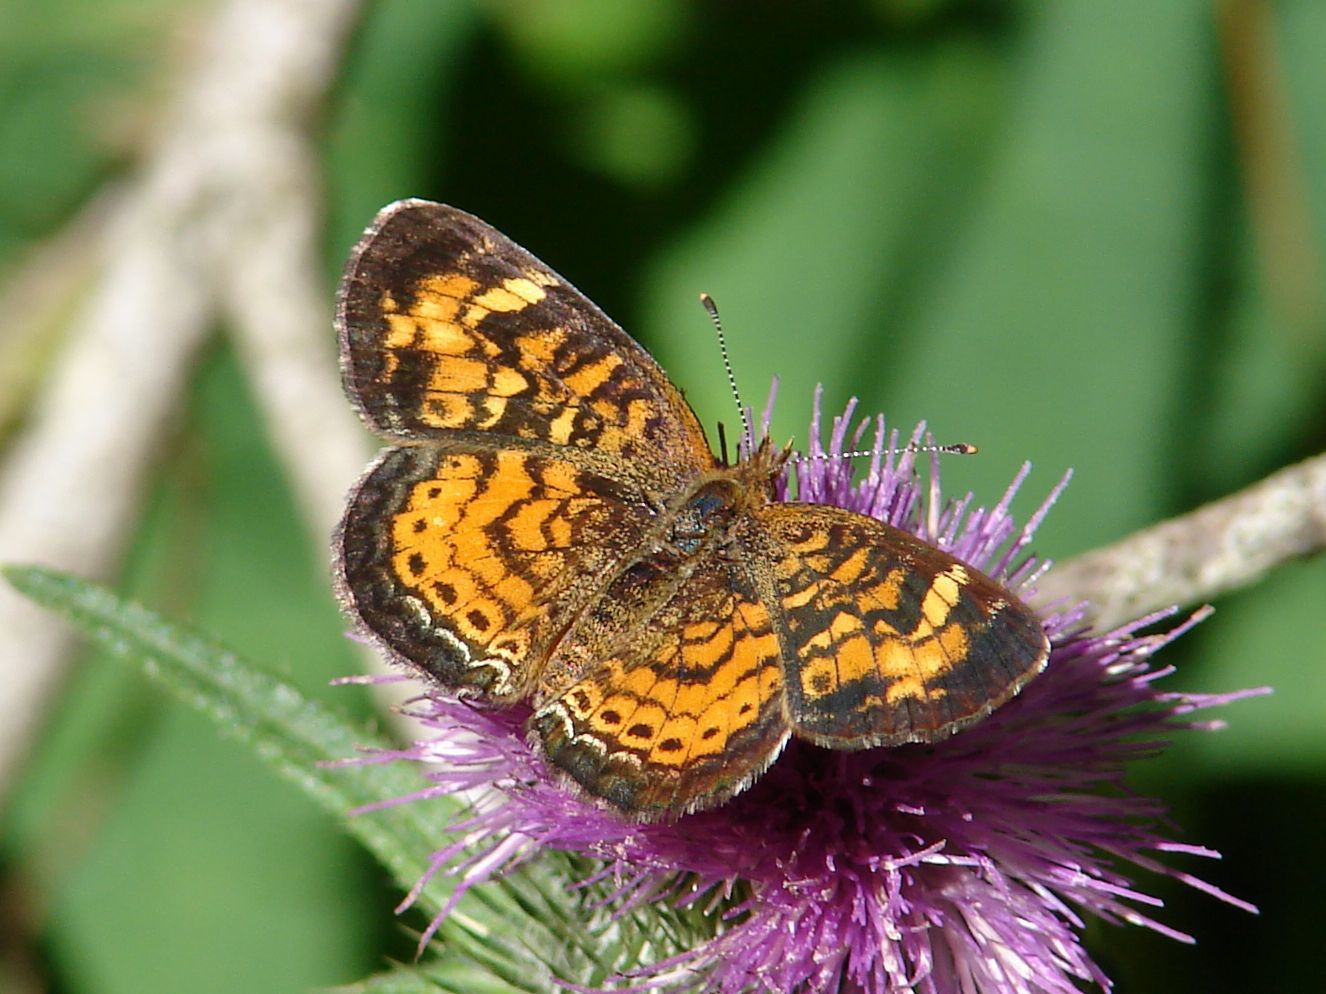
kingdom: Animalia
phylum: Arthropoda
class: Insecta
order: Lepidoptera
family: Nymphalidae
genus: Phyciodes
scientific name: Phyciodes tharos
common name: Pearl crescent
